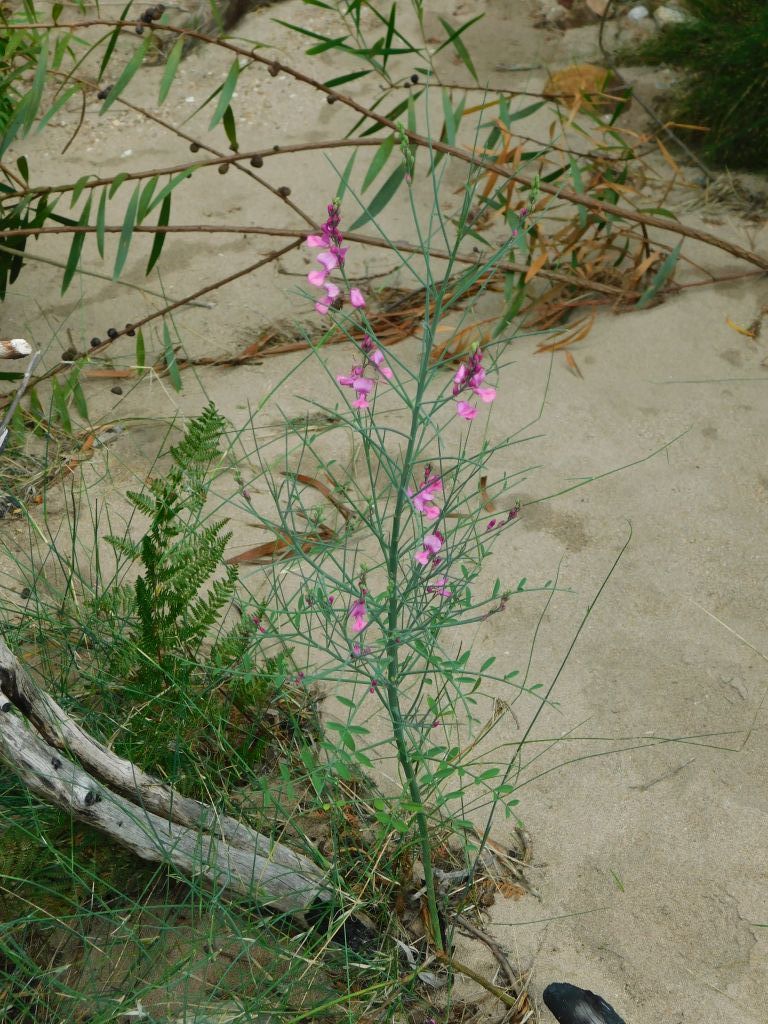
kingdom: Plantae
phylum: Tracheophyta
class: Magnoliopsida
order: Fabales
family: Fabaceae
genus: Indigofera
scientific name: Indigofera filifolia
